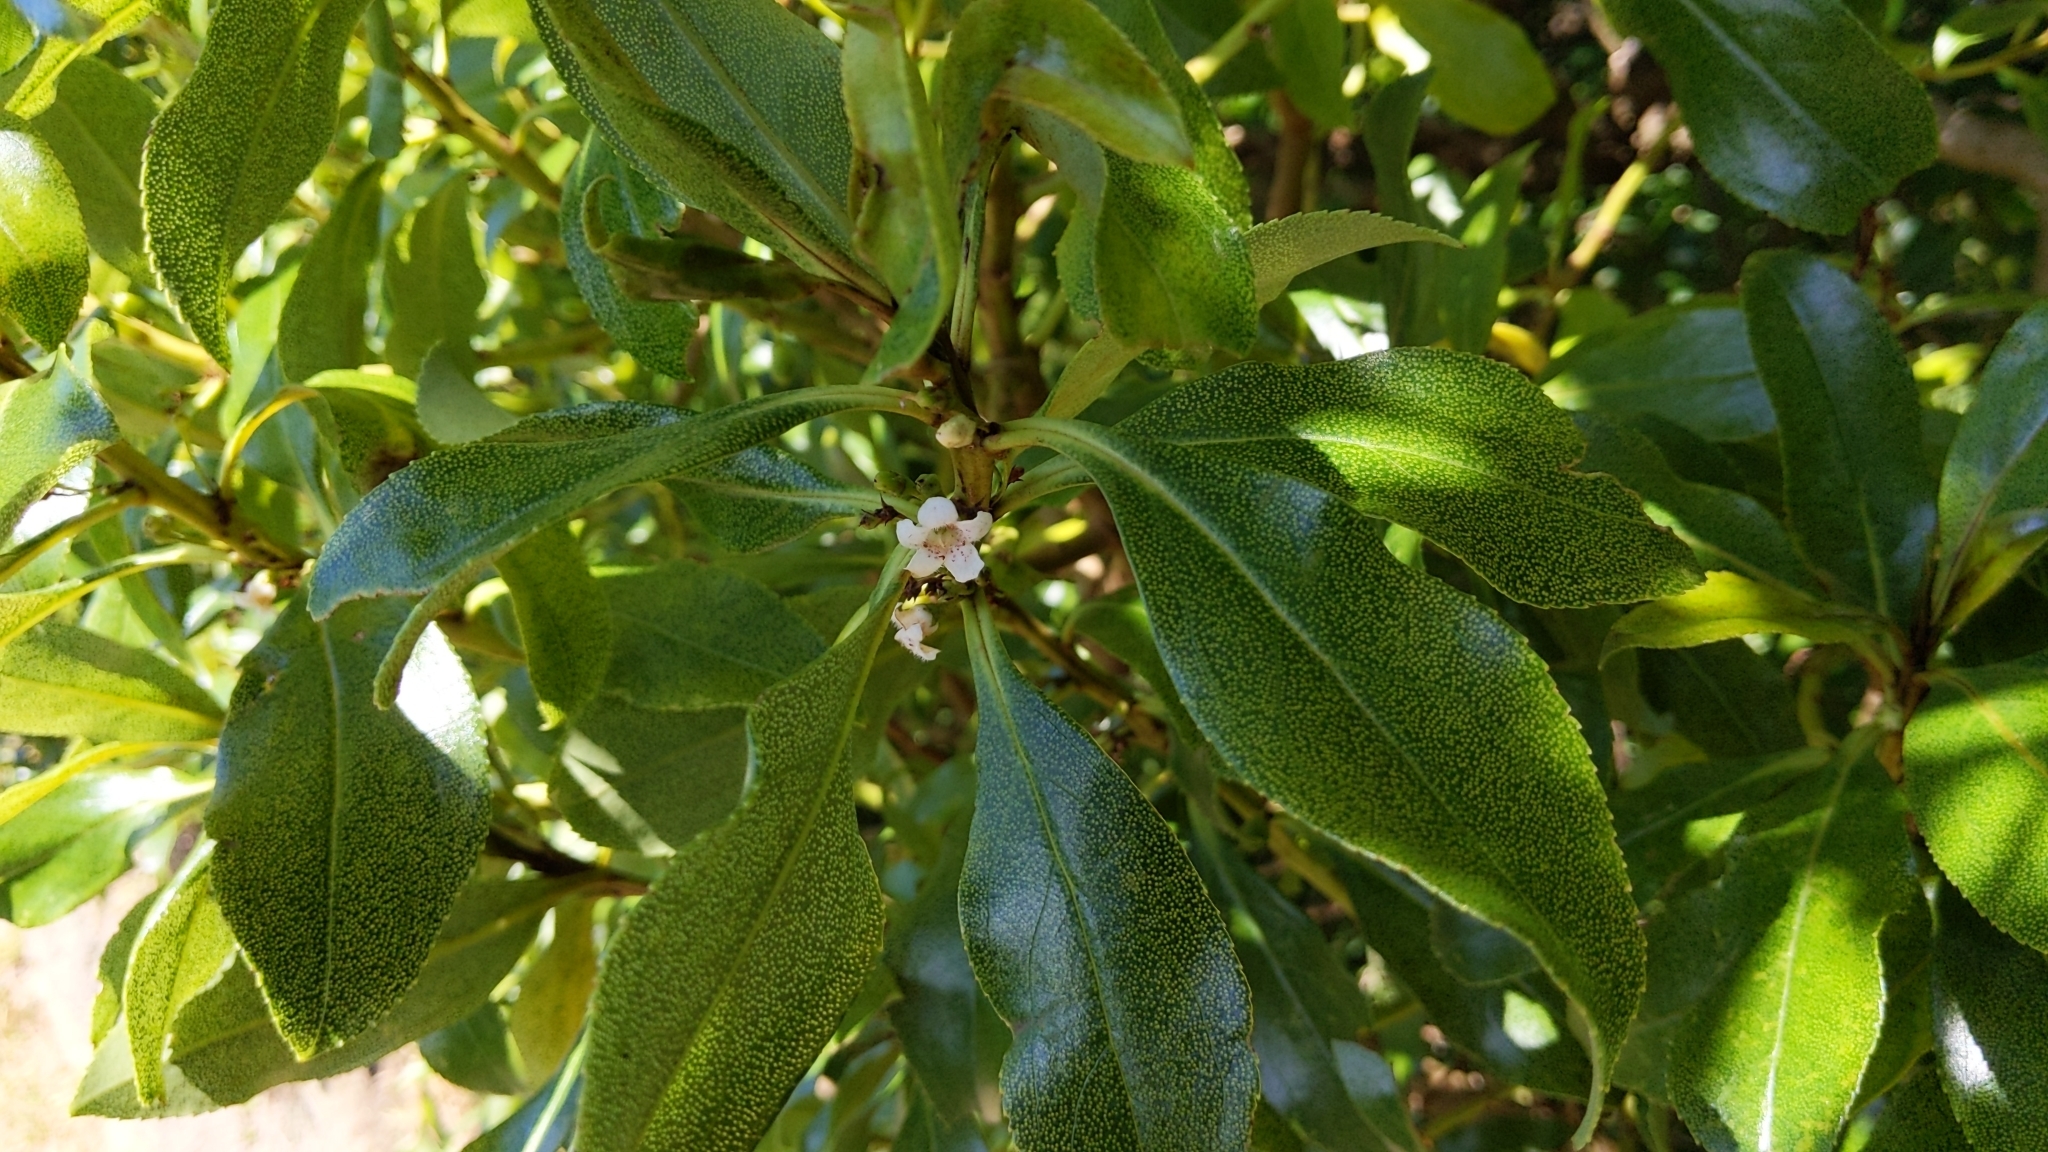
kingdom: Plantae
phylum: Tracheophyta
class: Magnoliopsida
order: Lamiales
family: Scrophulariaceae
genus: Myoporum
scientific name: Myoporum laetum
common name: Ngaio tree
